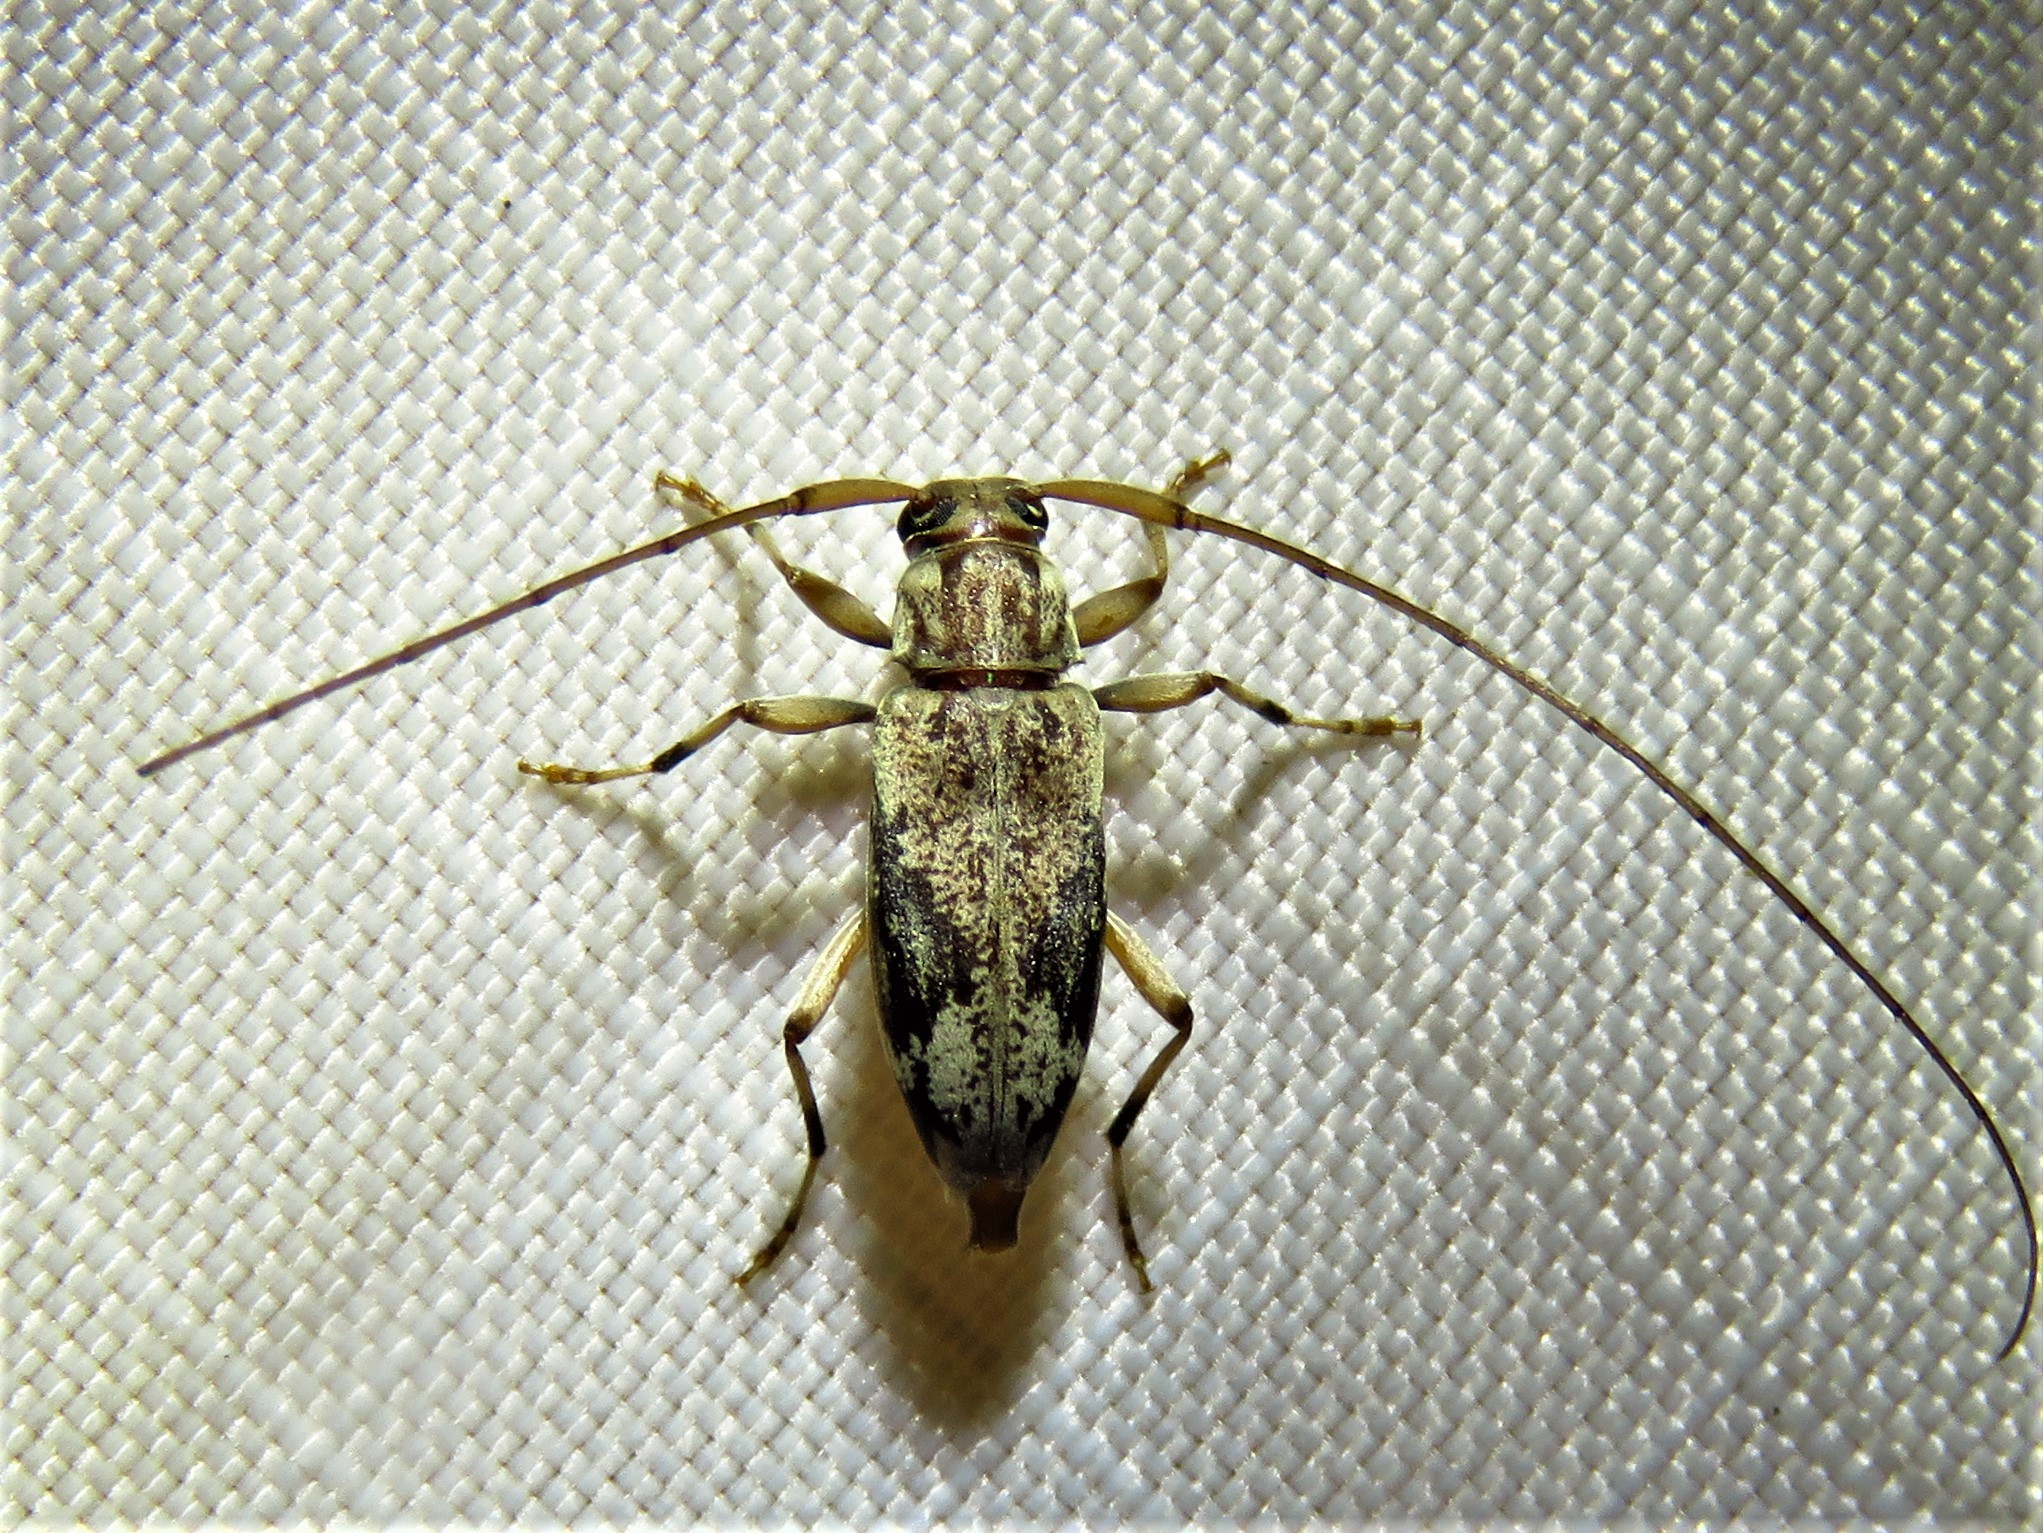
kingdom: Animalia
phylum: Arthropoda
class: Insecta
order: Coleoptera
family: Cerambycidae
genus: Lepturges
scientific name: Lepturges angulatus
